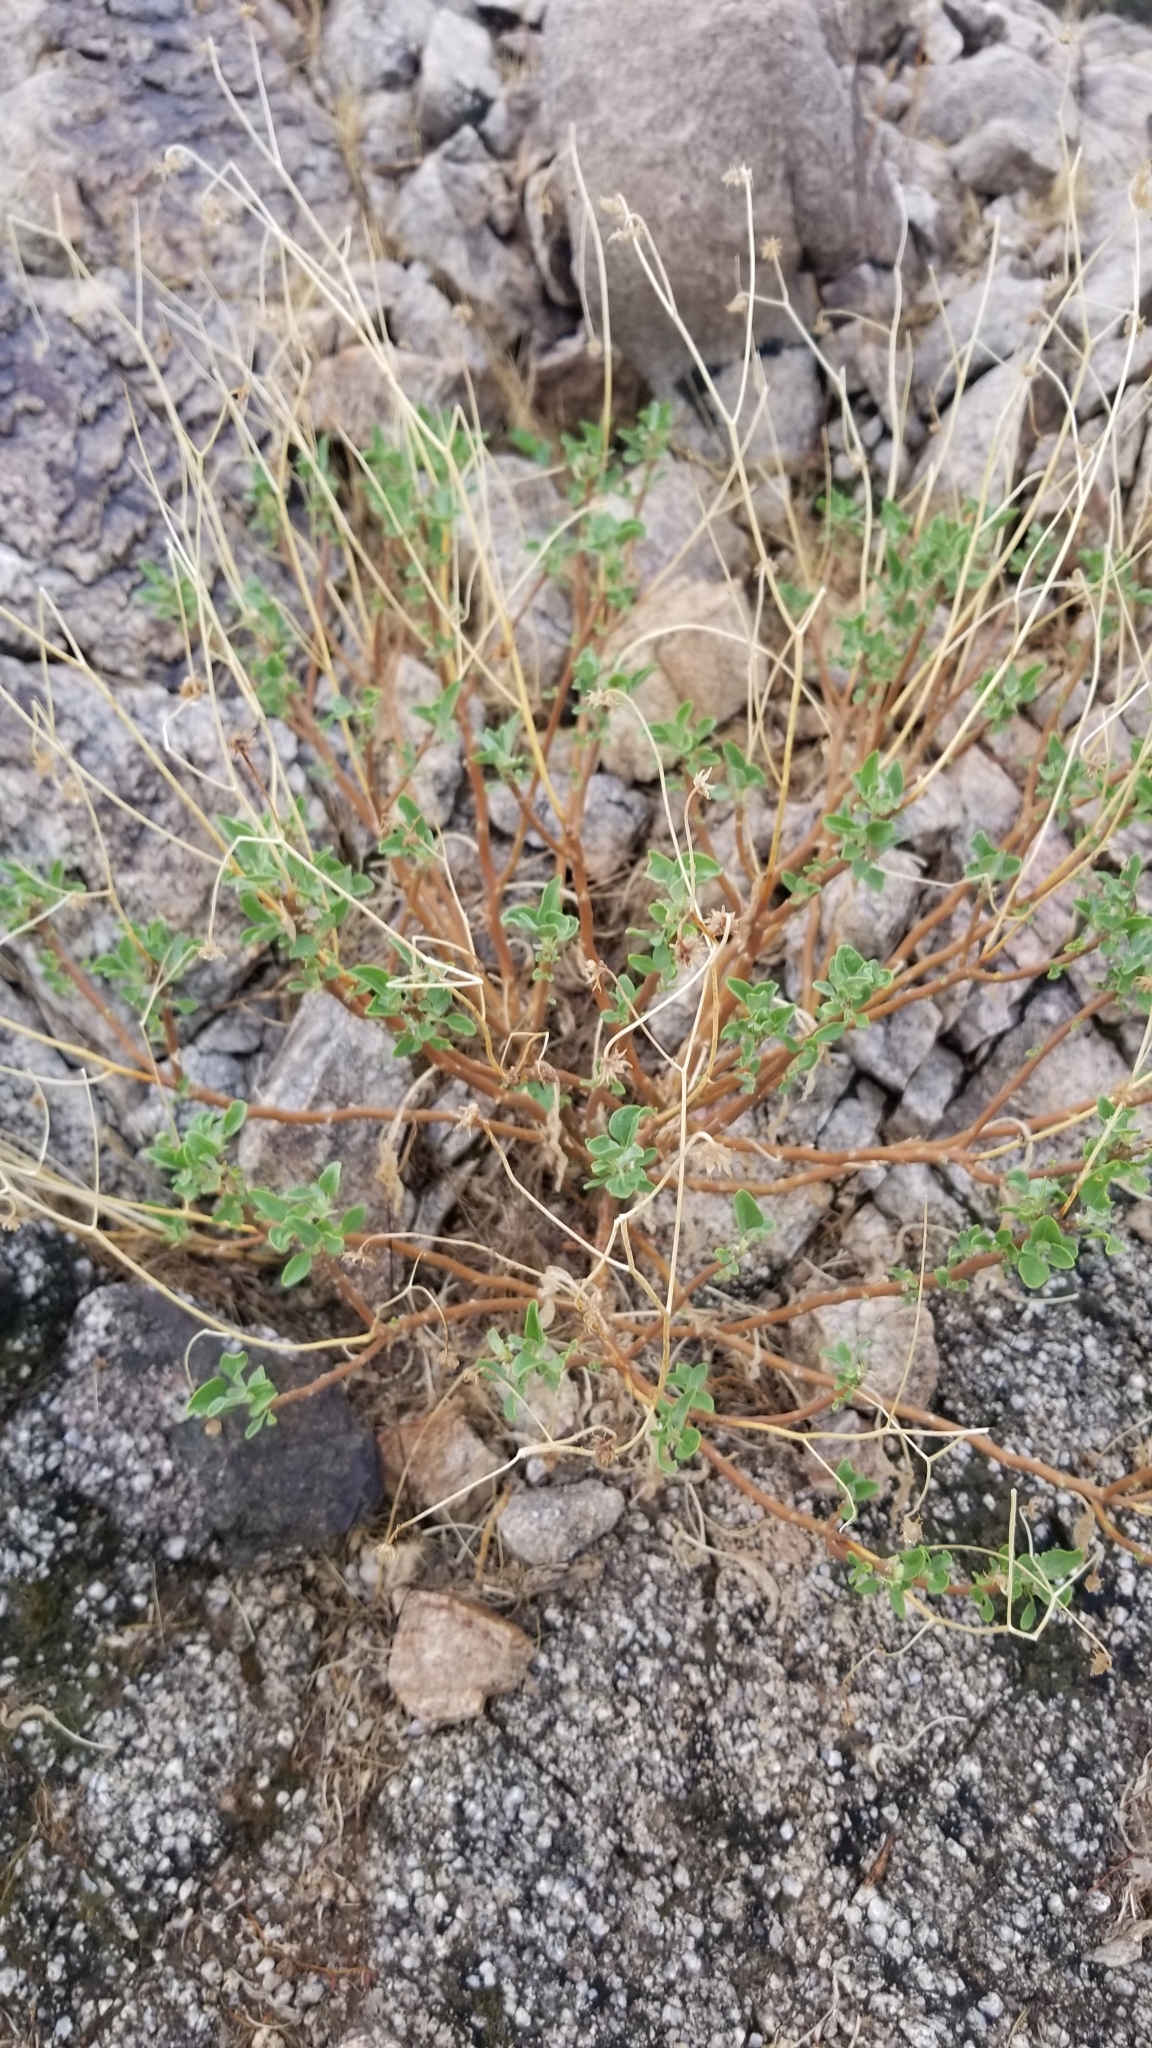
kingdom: Plantae
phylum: Tracheophyta
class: Magnoliopsida
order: Asterales
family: Asteraceae
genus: Encelia
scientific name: Encelia farinosa
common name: Brittlebush
